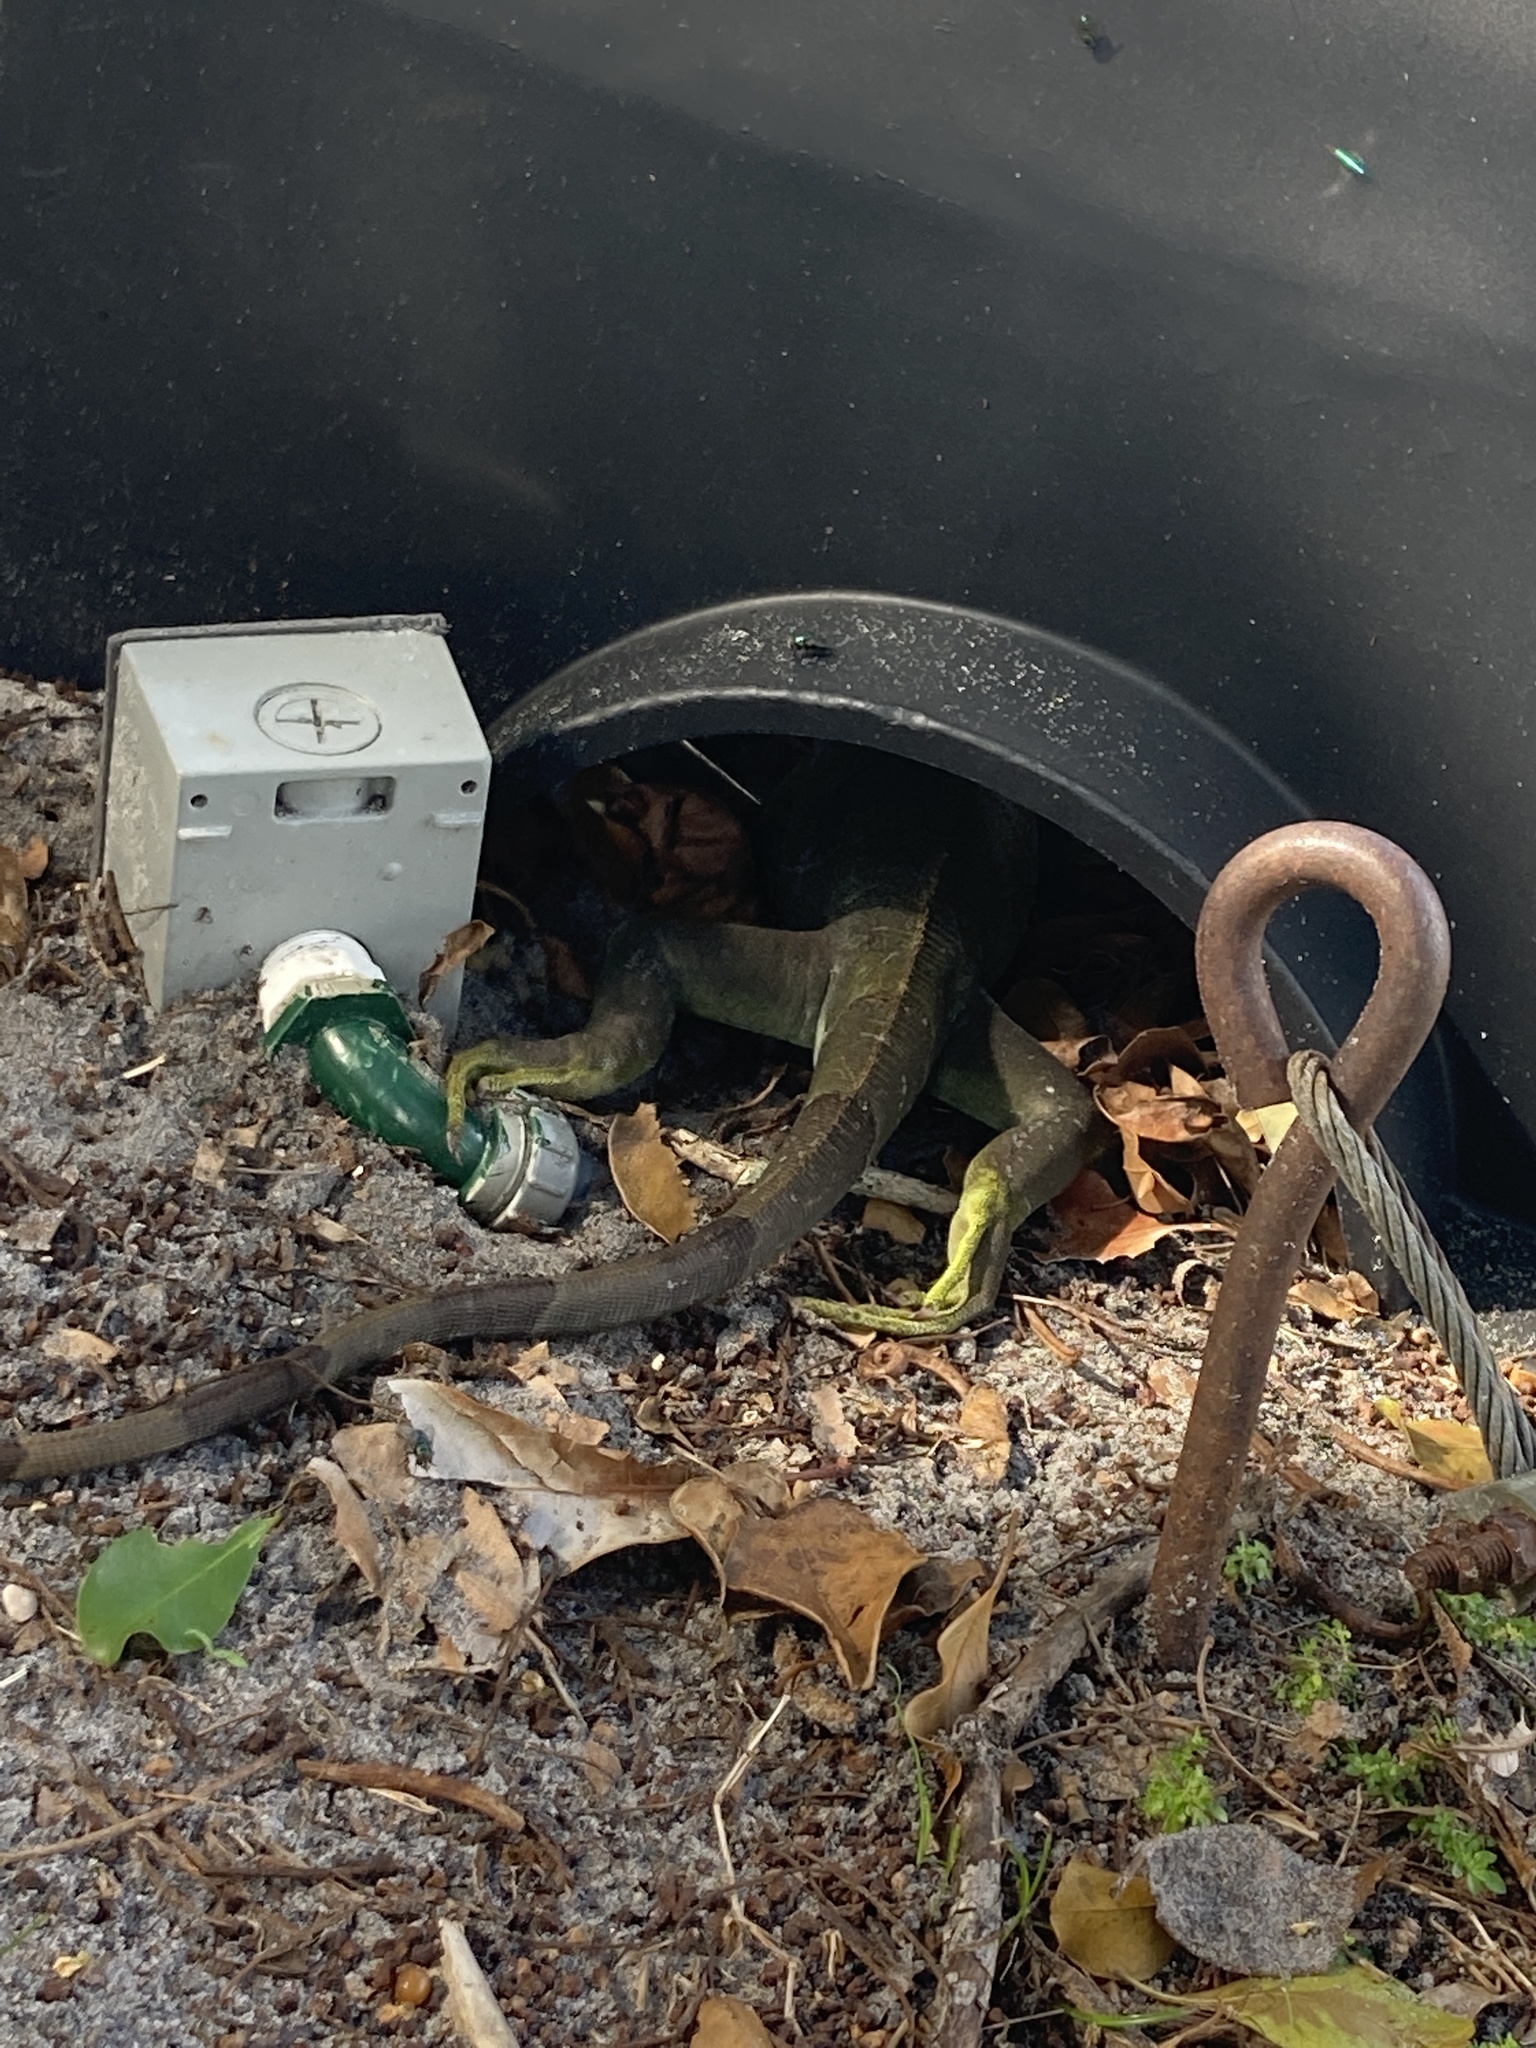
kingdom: Animalia
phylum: Chordata
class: Squamata
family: Iguanidae
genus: Iguana
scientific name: Iguana iguana
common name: Green iguana
